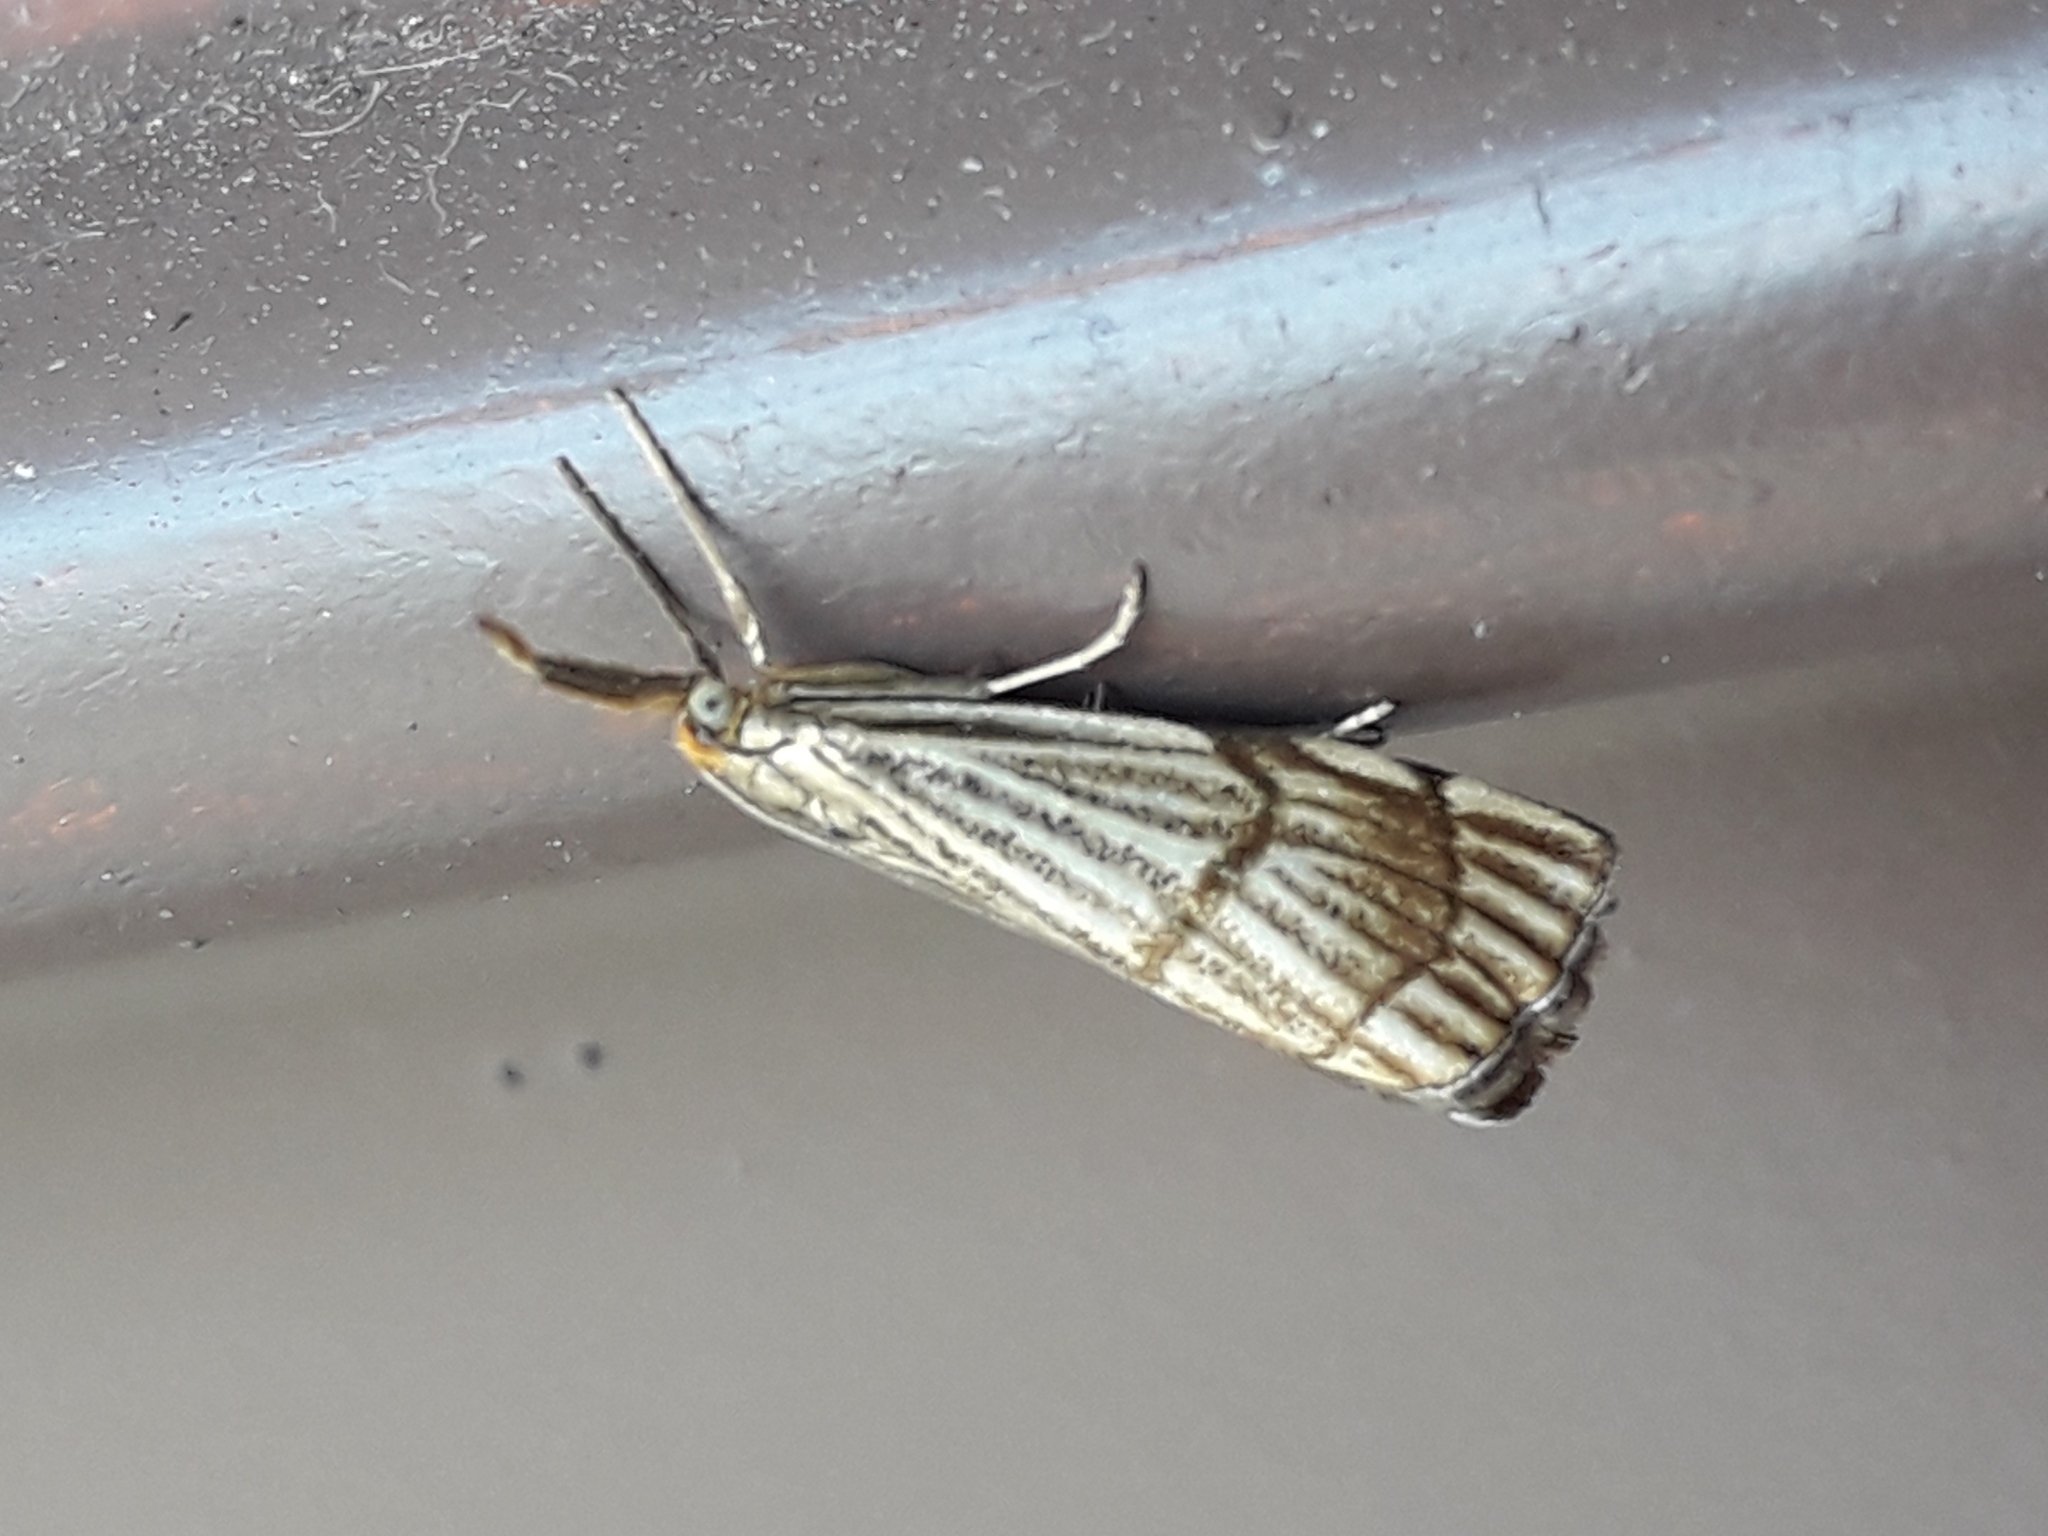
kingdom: Animalia
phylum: Arthropoda
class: Insecta
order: Lepidoptera
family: Crambidae
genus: Chrysocrambus
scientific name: Chrysocrambus linetella
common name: Orange-bar grass-veneer
